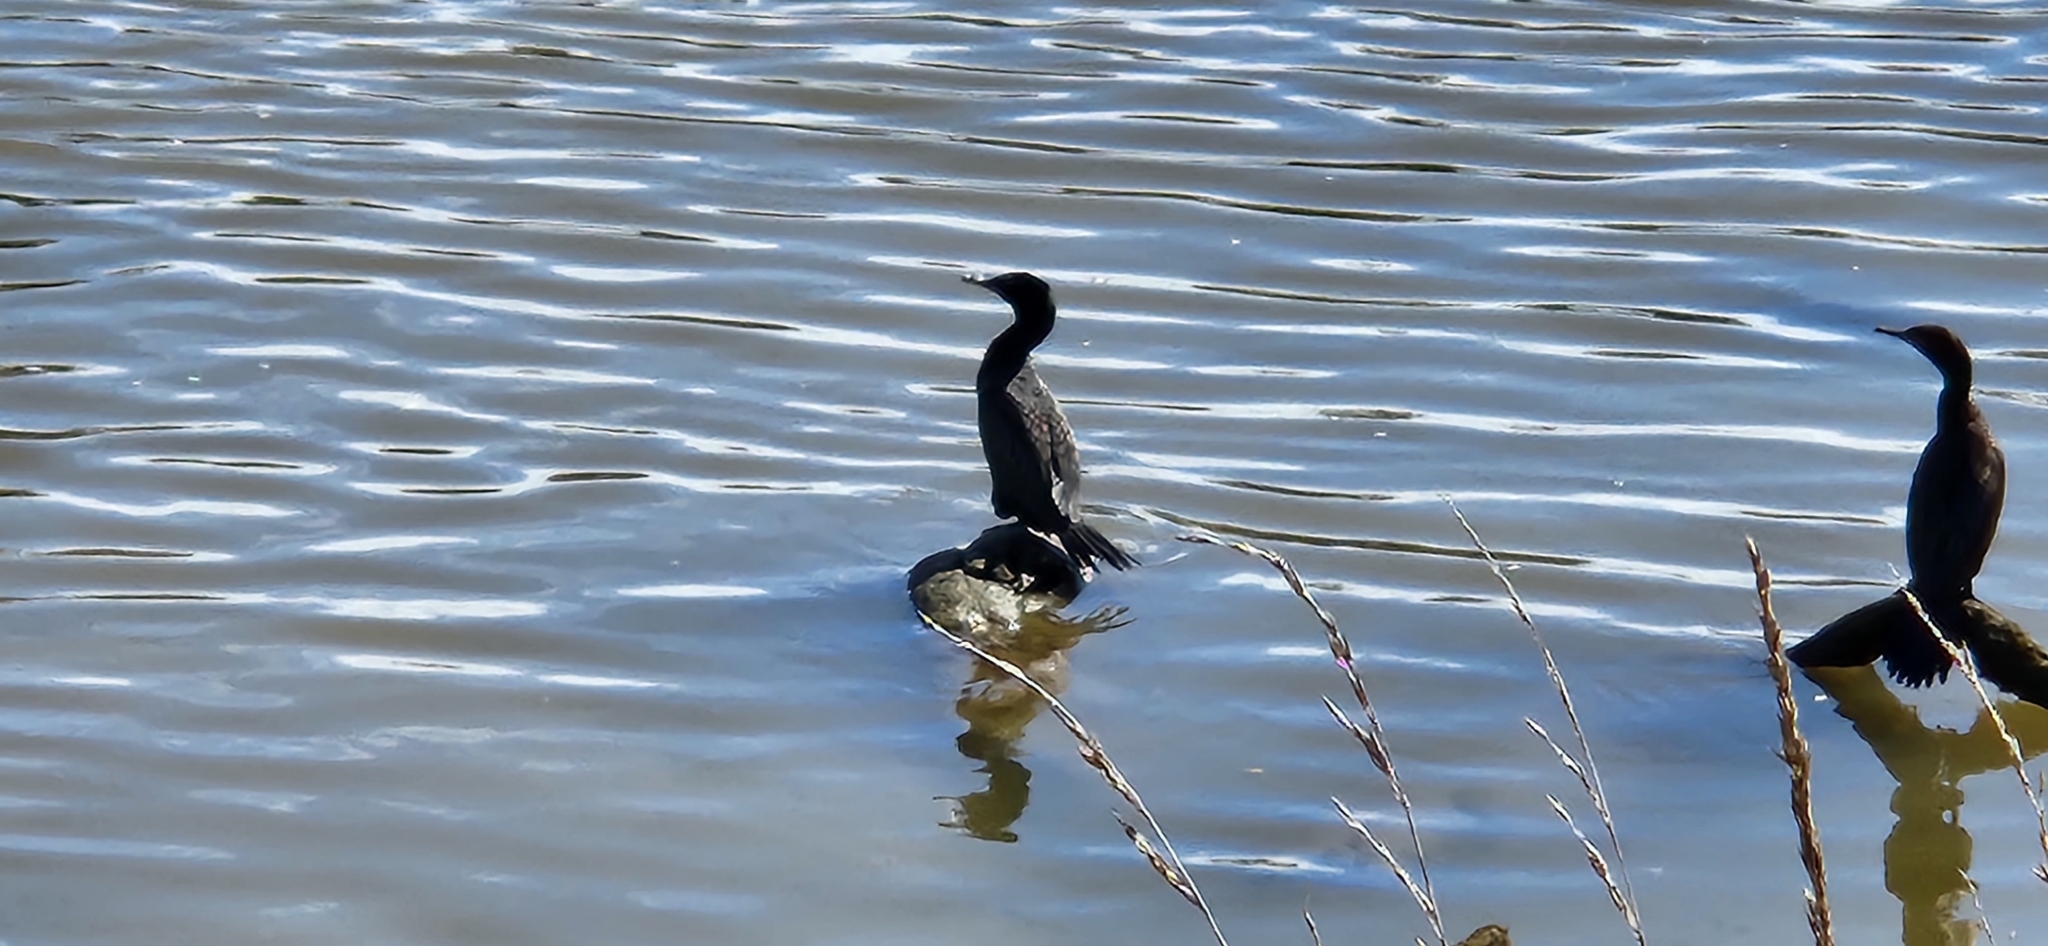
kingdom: Animalia
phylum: Chordata
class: Aves
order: Suliformes
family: Phalacrocoracidae
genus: Phalacrocorax
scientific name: Phalacrocorax sulcirostris
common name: Little black cormorant
